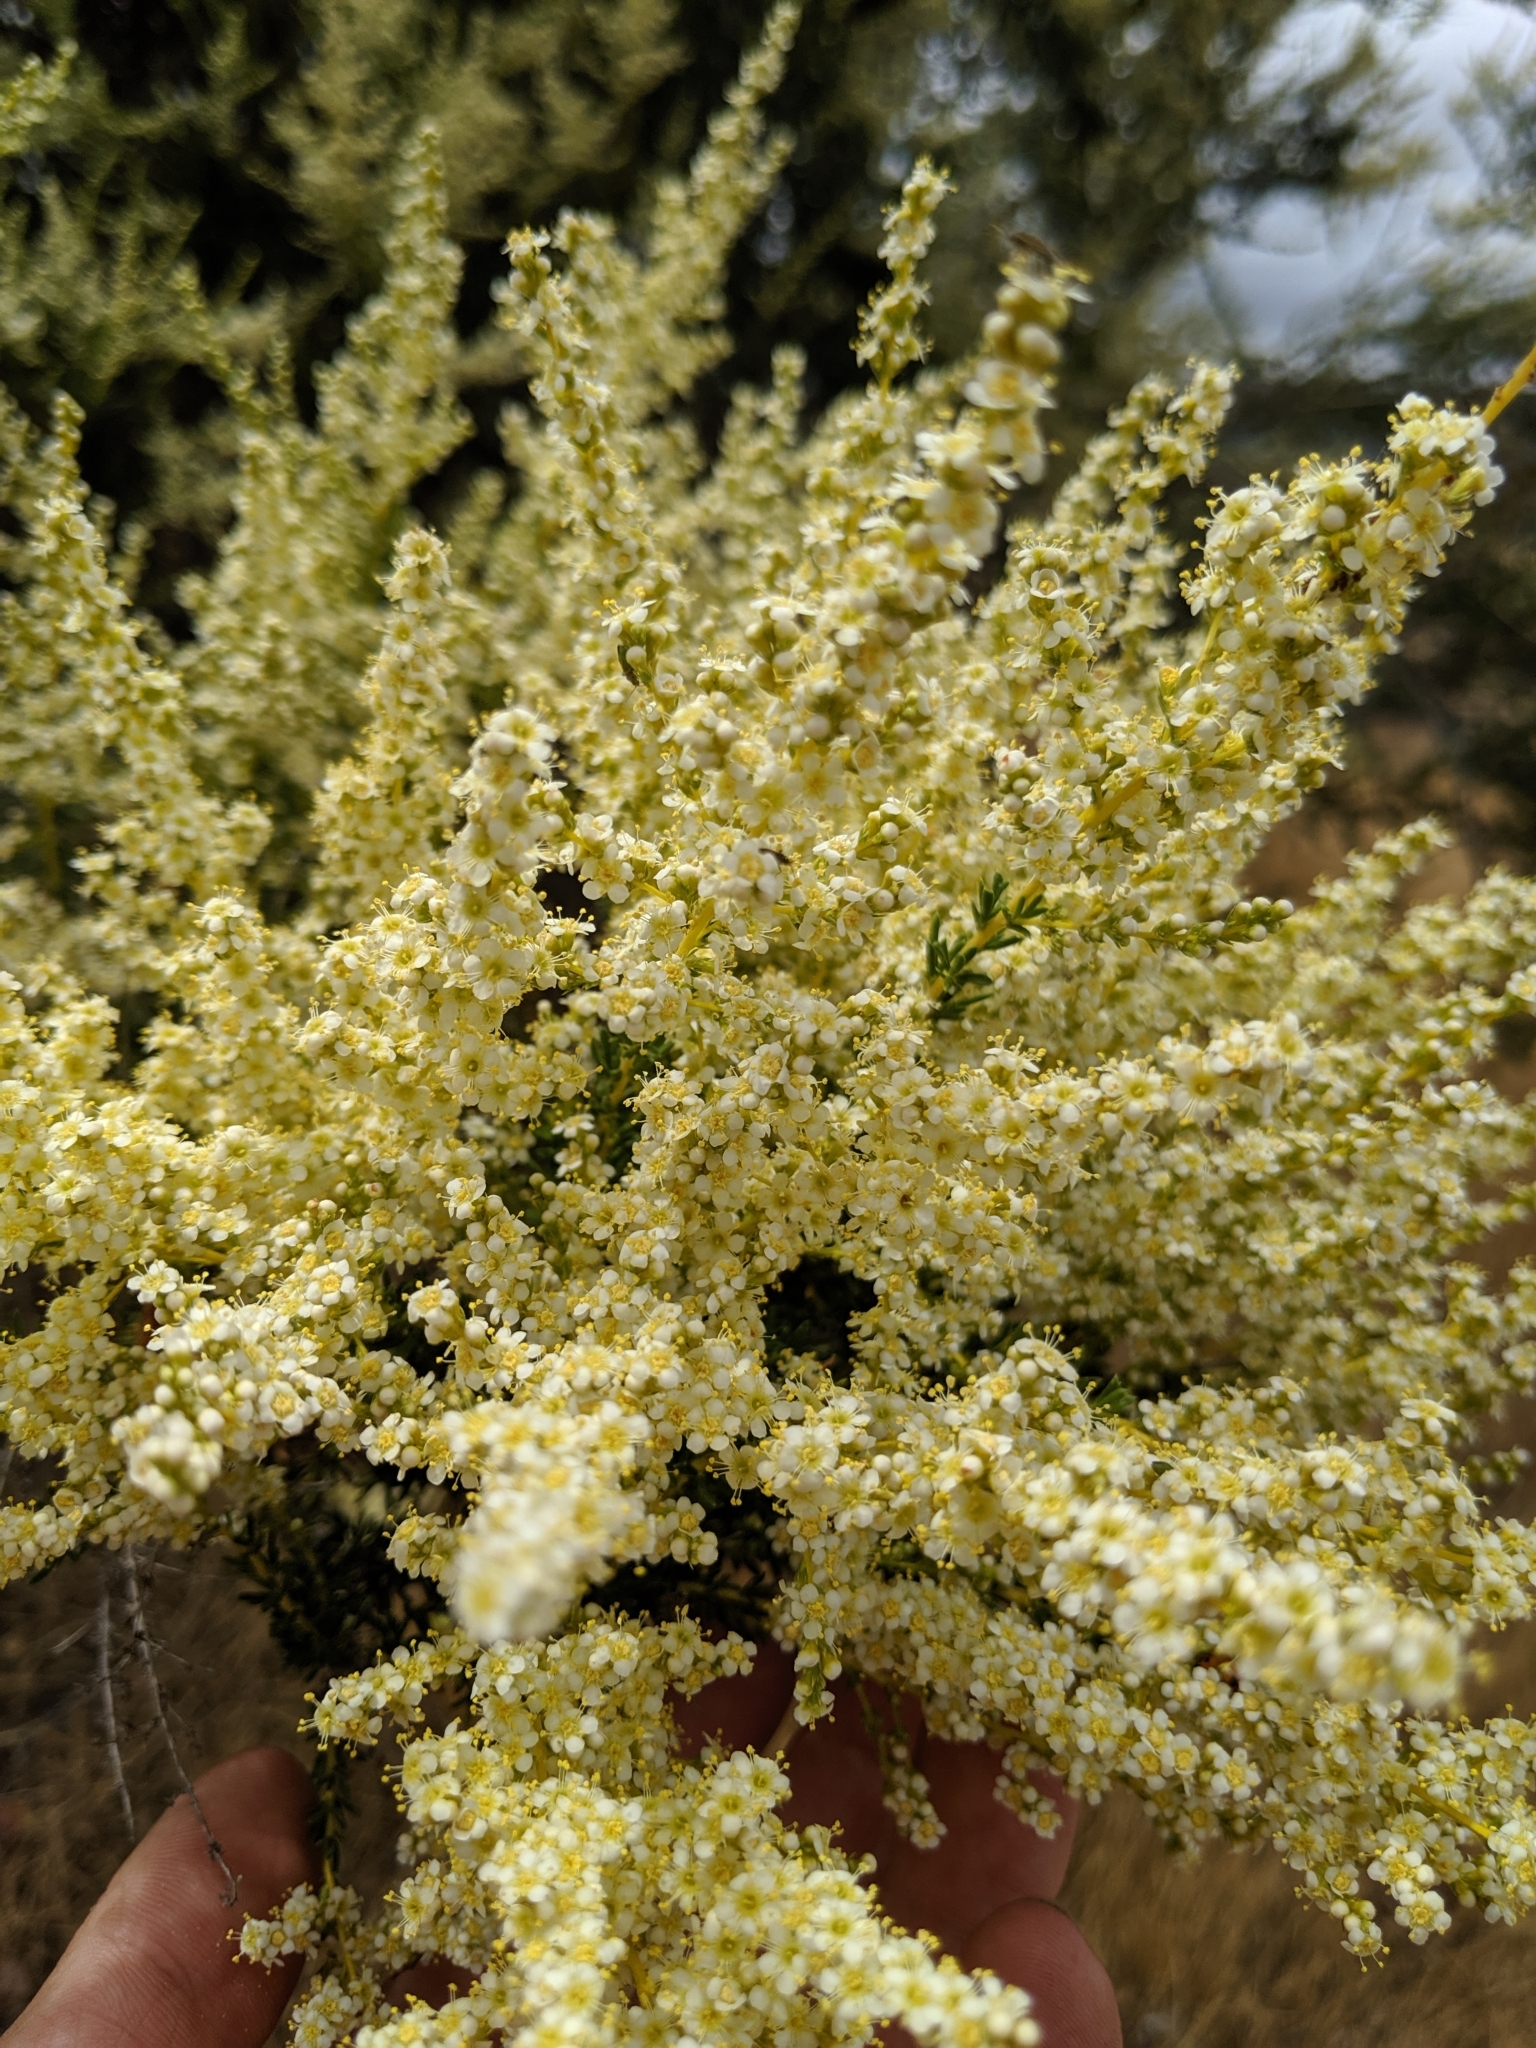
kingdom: Plantae
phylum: Tracheophyta
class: Magnoliopsida
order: Rosales
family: Rosaceae
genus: Adenostoma
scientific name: Adenostoma fasciculatum
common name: Chamise
